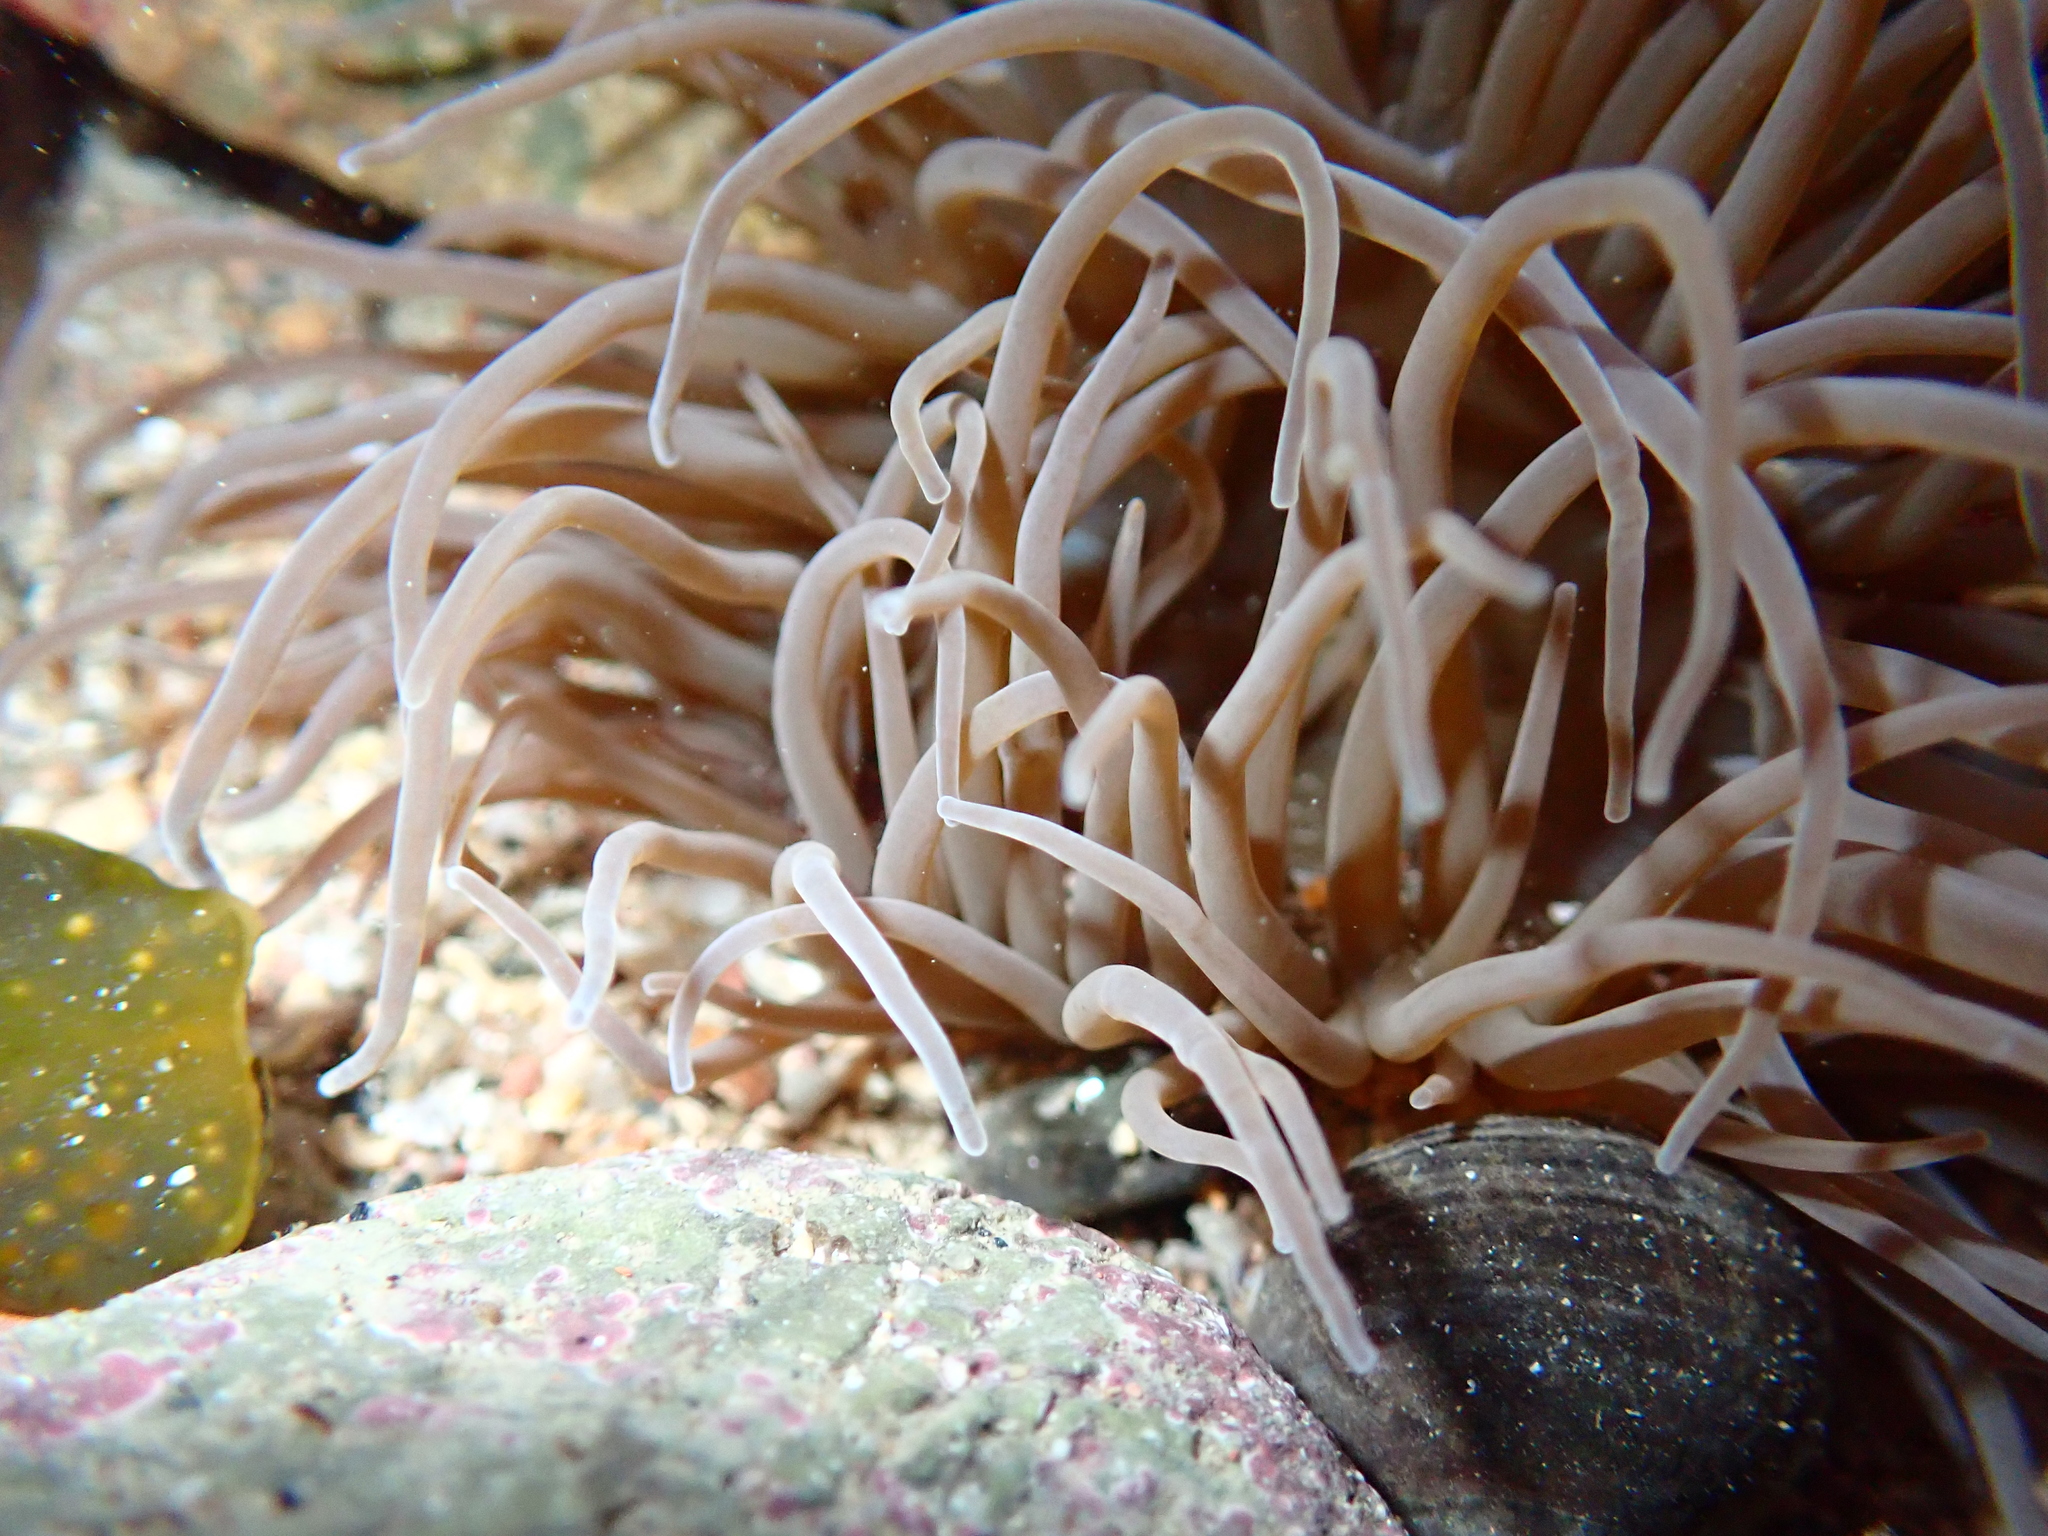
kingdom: Animalia
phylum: Cnidaria
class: Anthozoa
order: Actiniaria
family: Actiniidae
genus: Anemonia
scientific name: Anemonia viridis
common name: Snakelocks anemone
